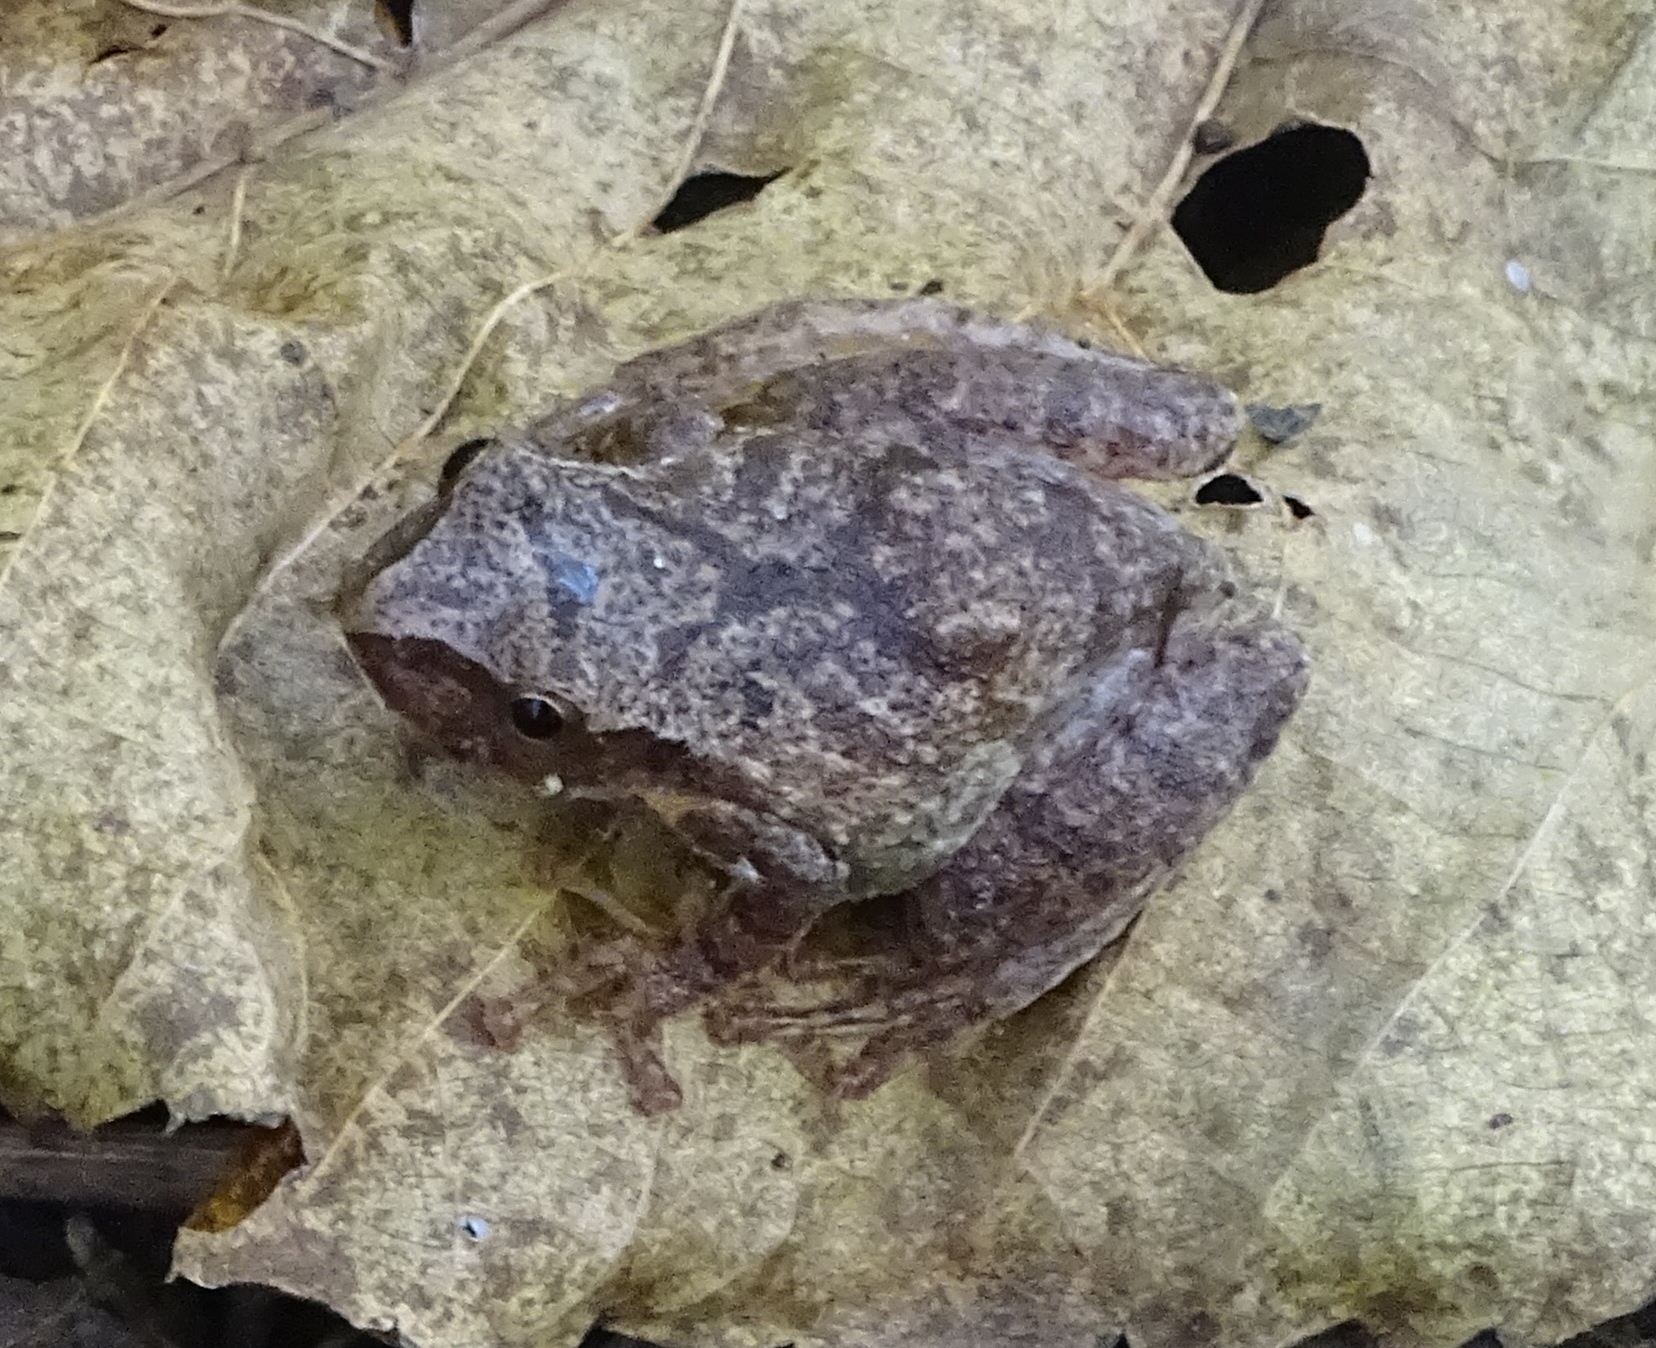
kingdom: Animalia
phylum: Chordata
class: Amphibia
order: Anura
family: Hylidae
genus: Pseudacris
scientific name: Pseudacris crucifer
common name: Spring peeper
